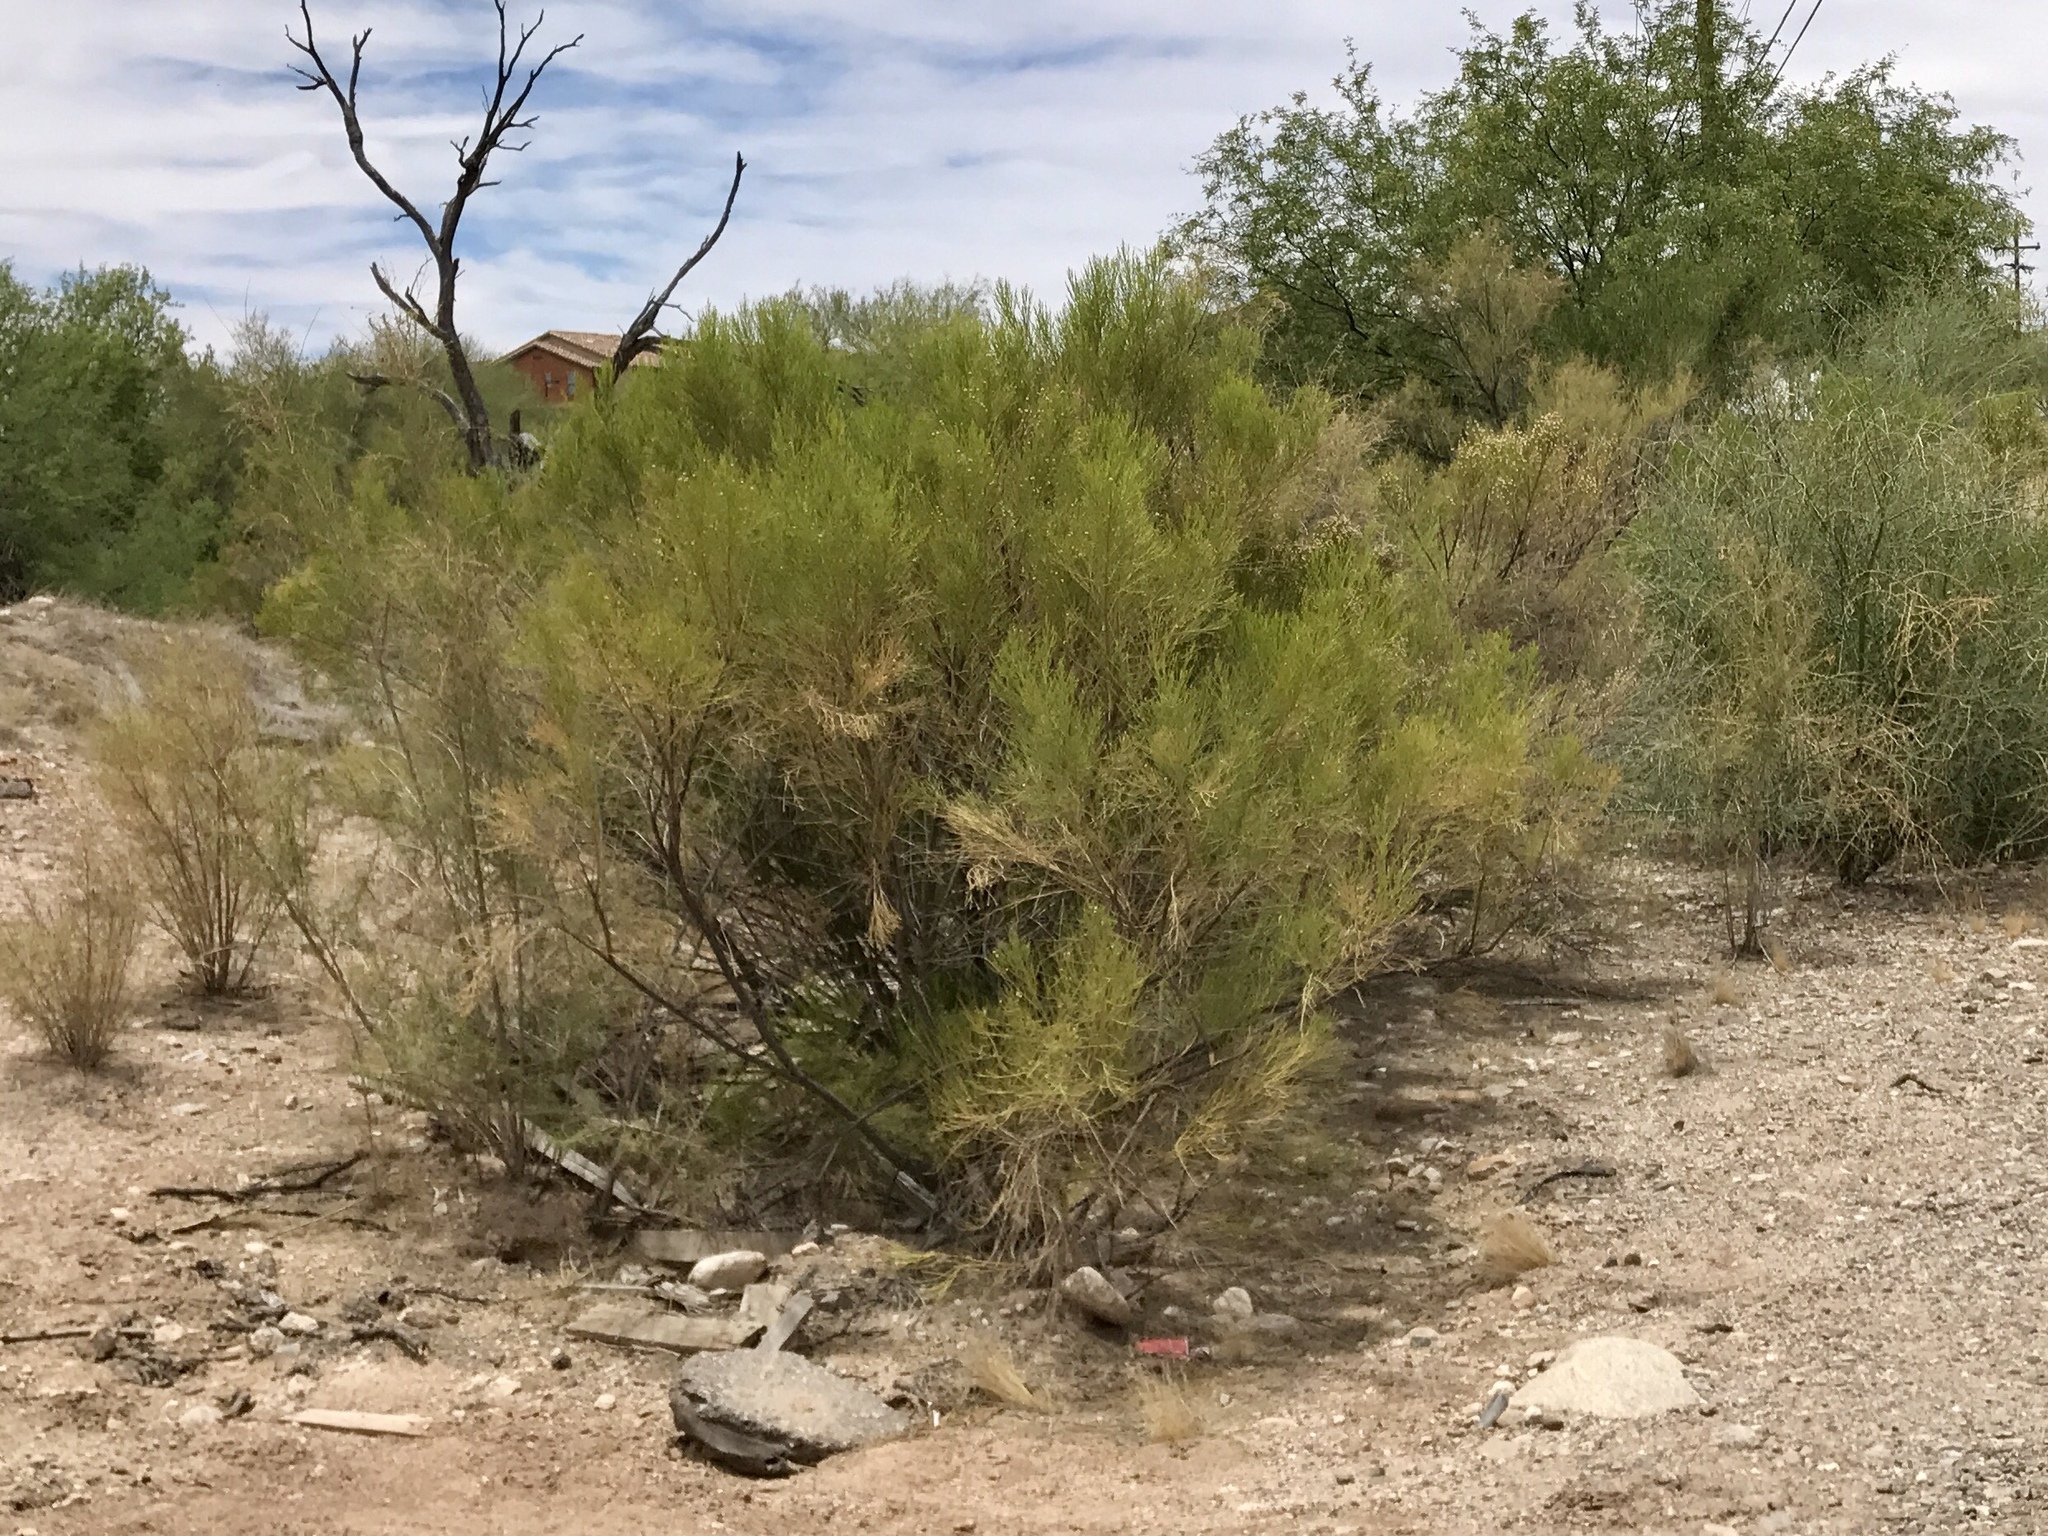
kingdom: Plantae
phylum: Tracheophyta
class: Magnoliopsida
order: Asterales
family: Asteraceae
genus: Baccharis
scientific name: Baccharis sarothroides
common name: Desert-broom
